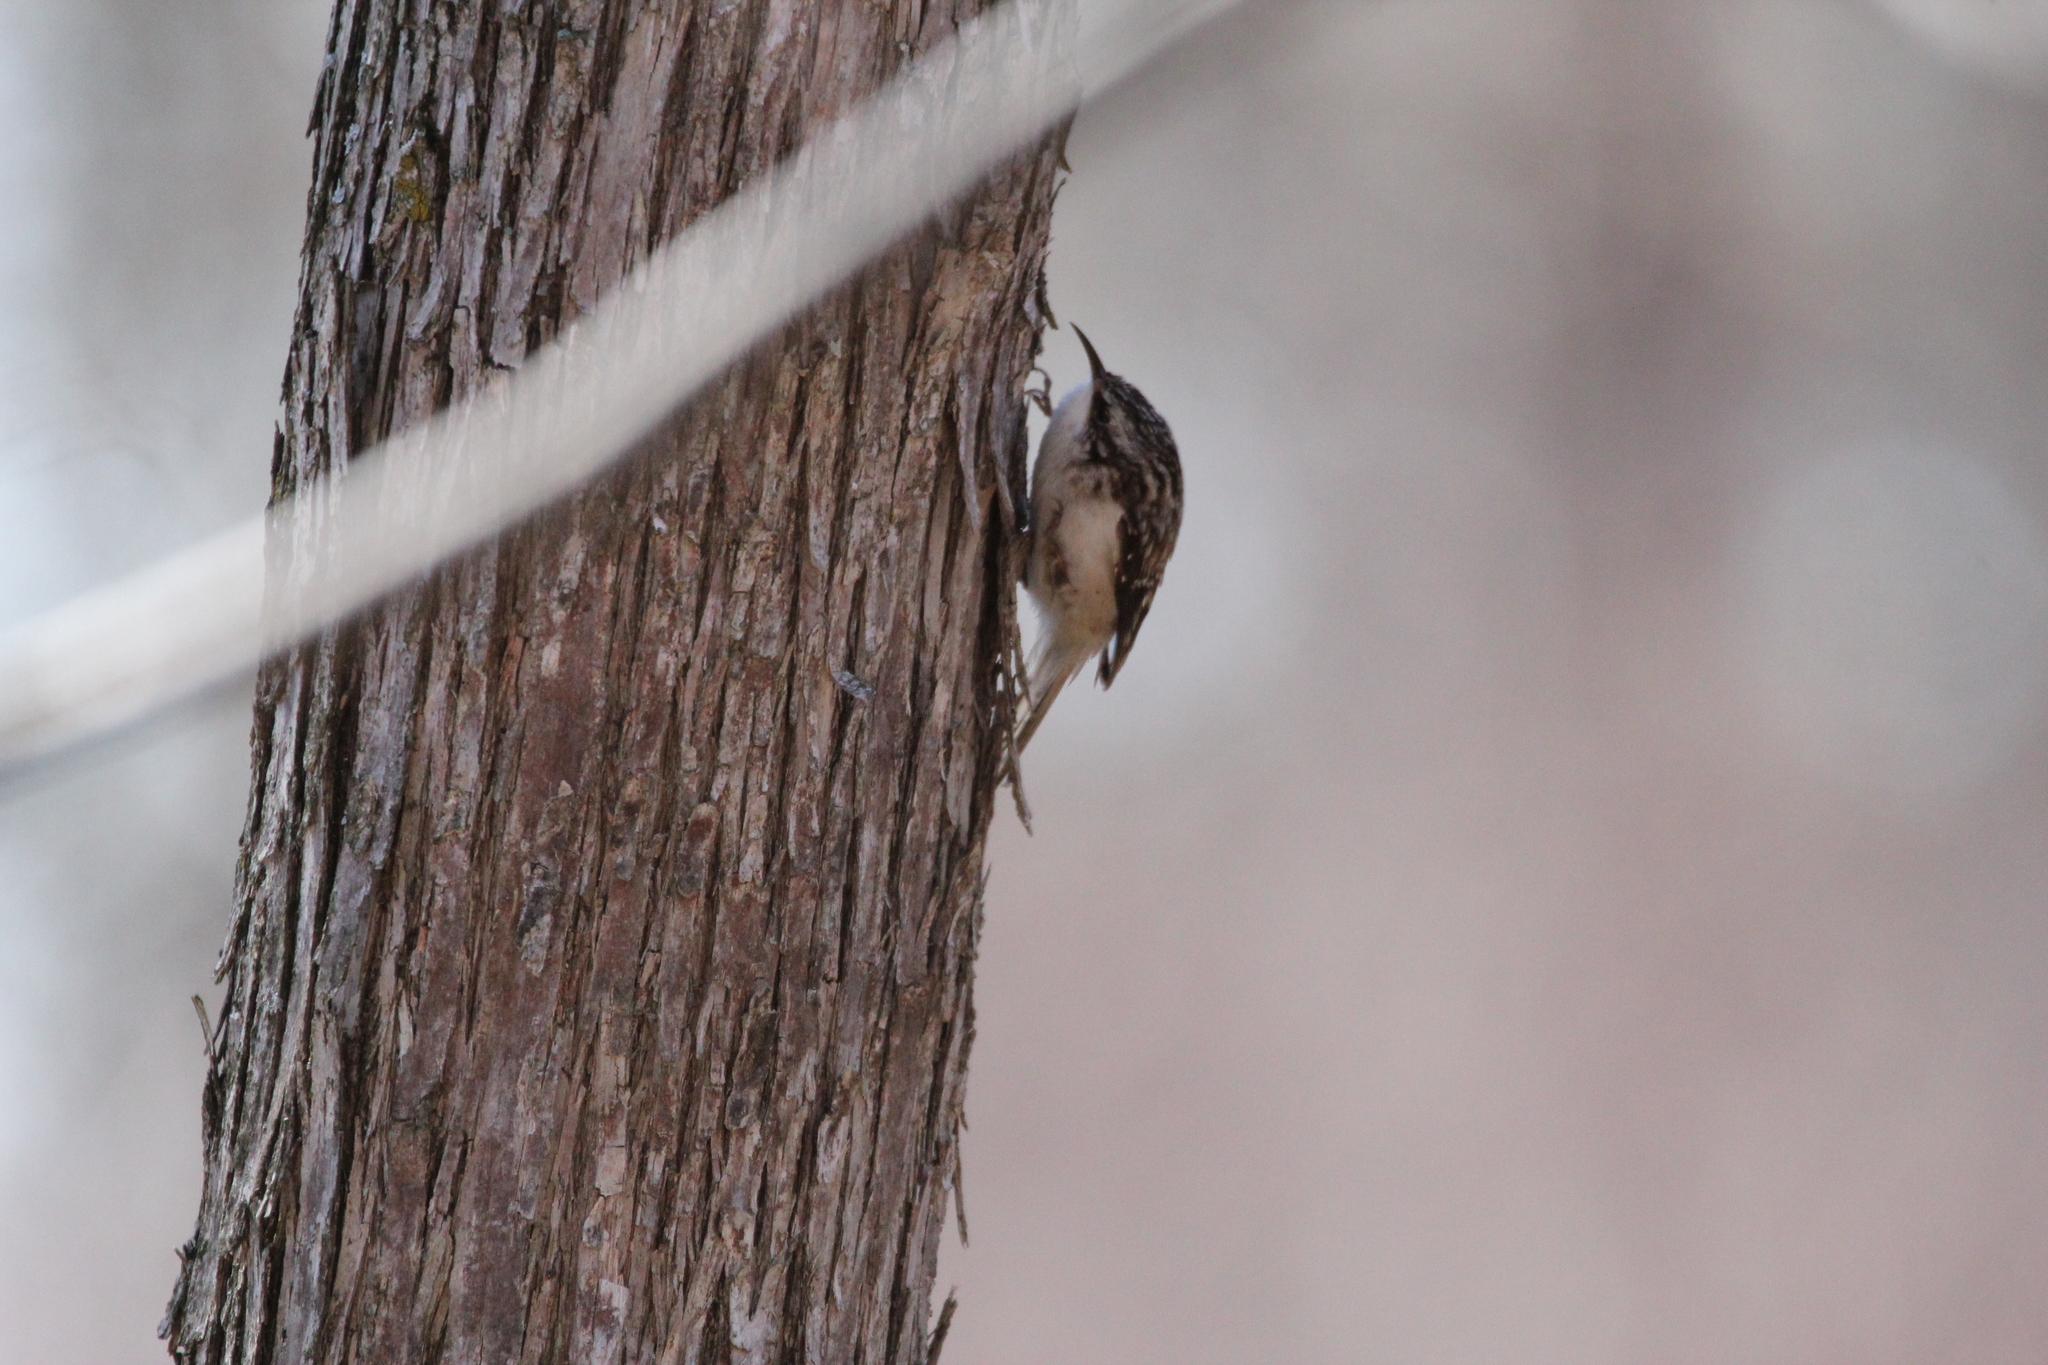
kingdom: Animalia
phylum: Chordata
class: Aves
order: Passeriformes
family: Certhiidae
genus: Certhia
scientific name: Certhia americana
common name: Brown creeper
